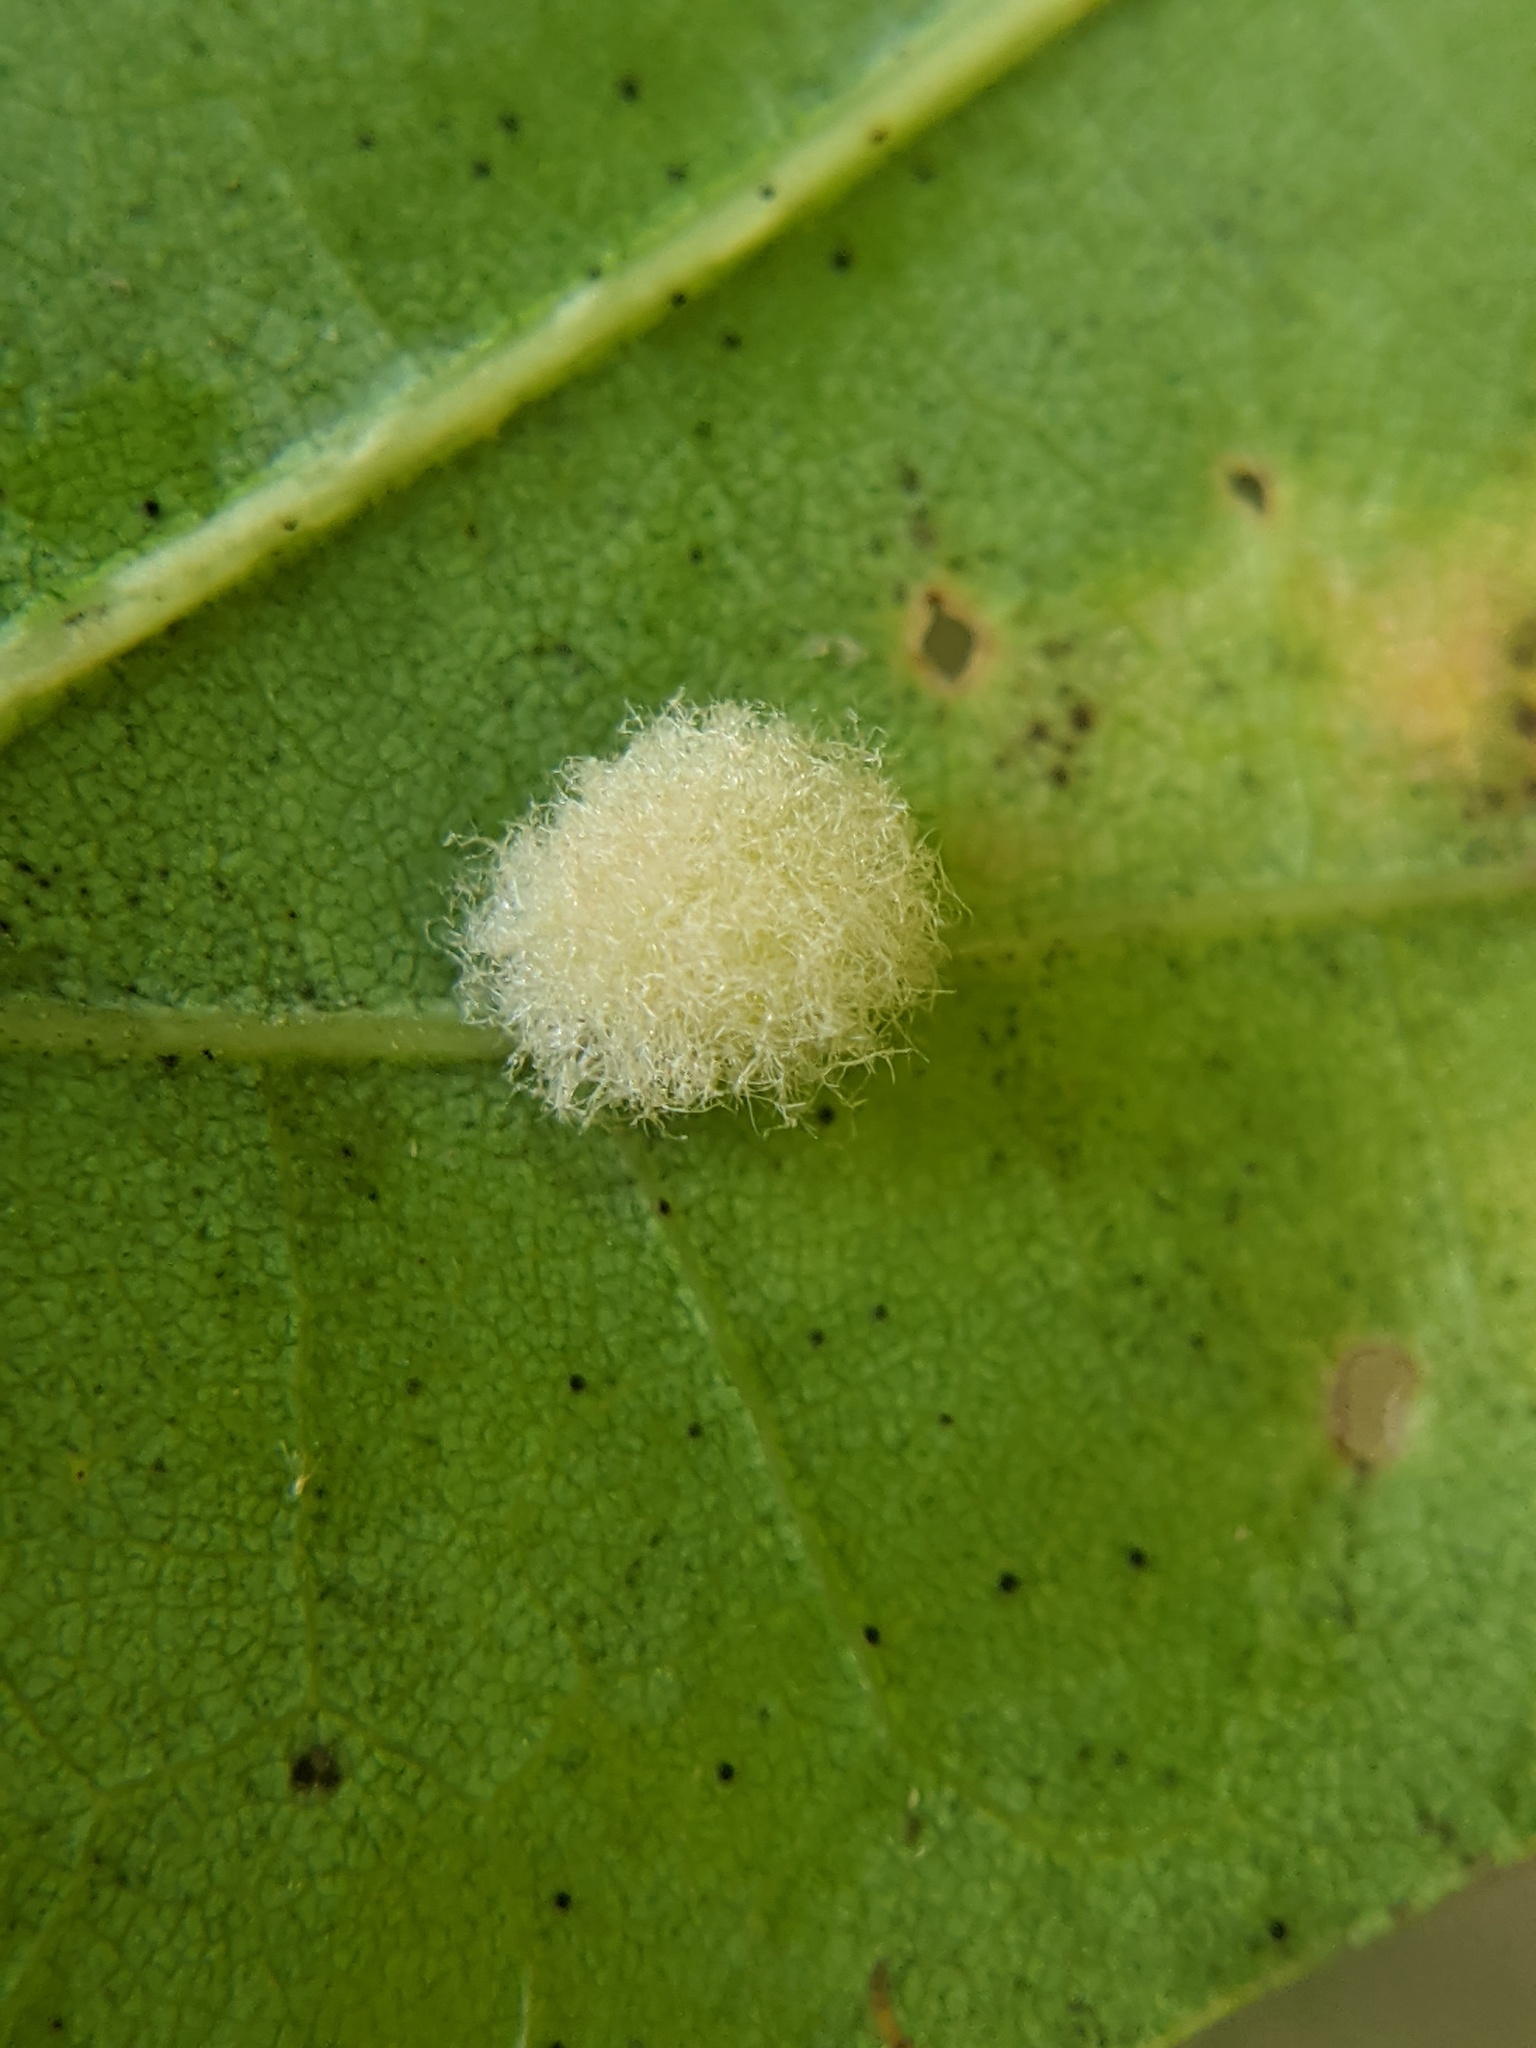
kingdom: Animalia
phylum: Arthropoda
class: Insecta
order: Hymenoptera
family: Cynipidae
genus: Callirhytis
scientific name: Callirhytis
